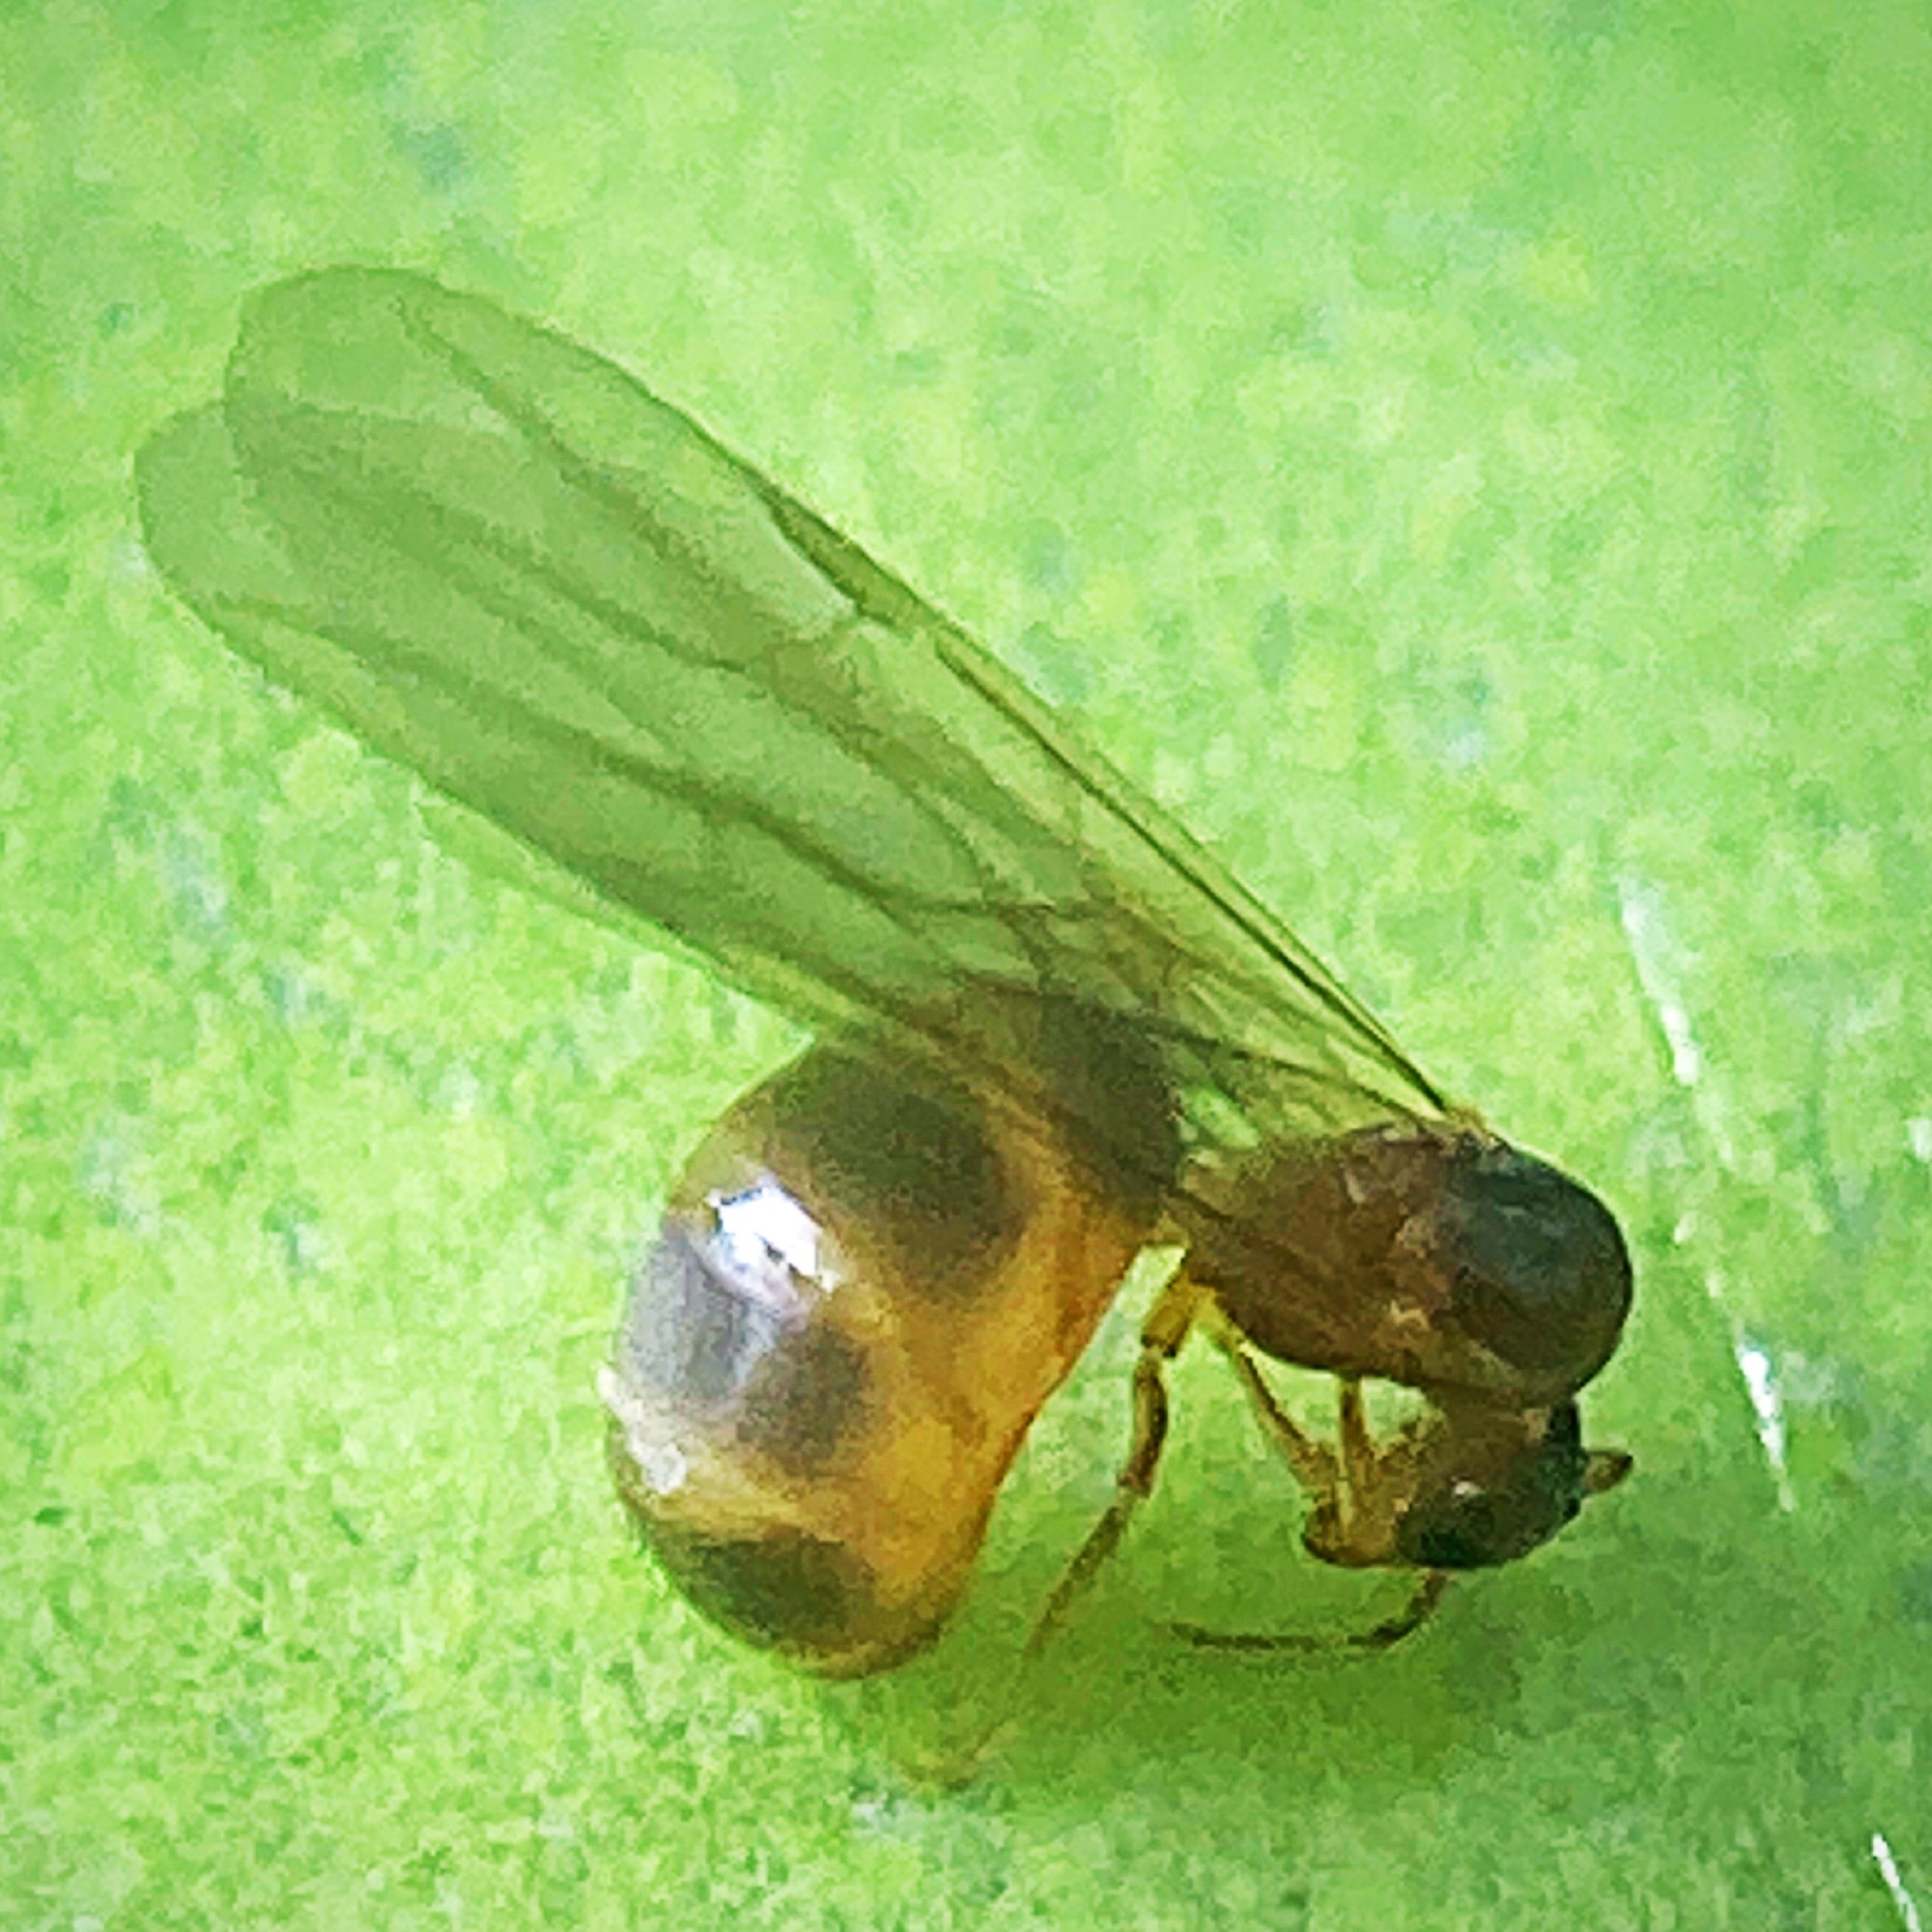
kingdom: Animalia
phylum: Arthropoda
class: Insecta
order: Hymenoptera
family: Formicidae
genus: Brachymyrmex
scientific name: Brachymyrmex depilis
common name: Hairless rover ant
